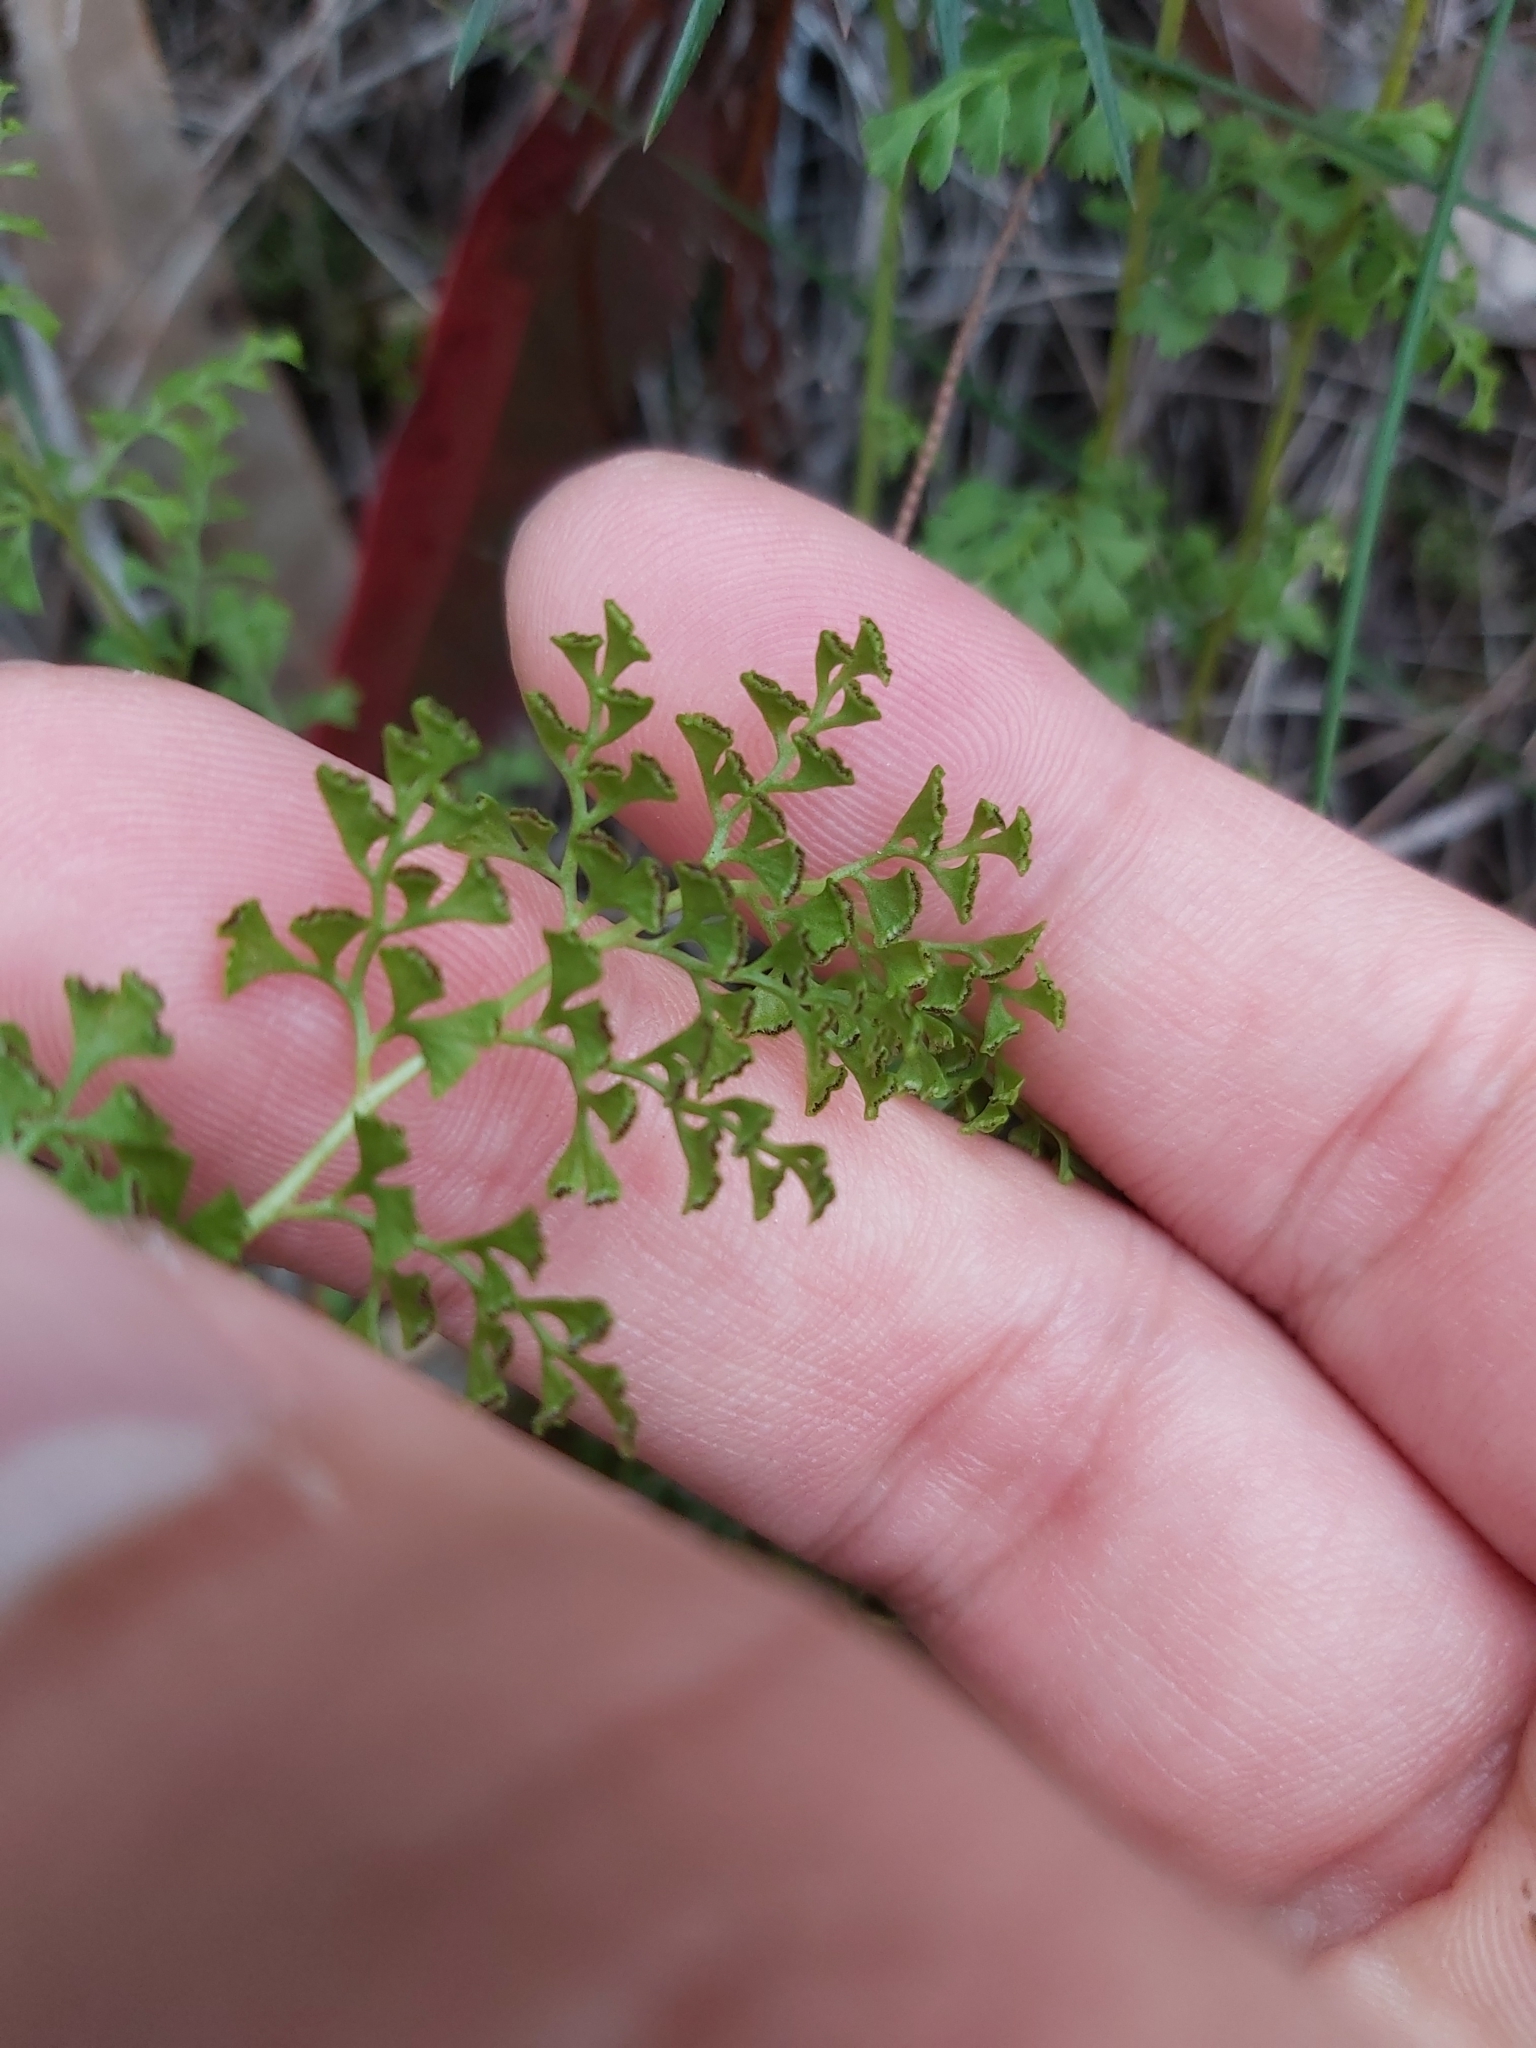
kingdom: Plantae
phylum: Tracheophyta
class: Polypodiopsida
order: Polypodiales
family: Lindsaeaceae
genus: Lindsaea
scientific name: Lindsaea microphylla
